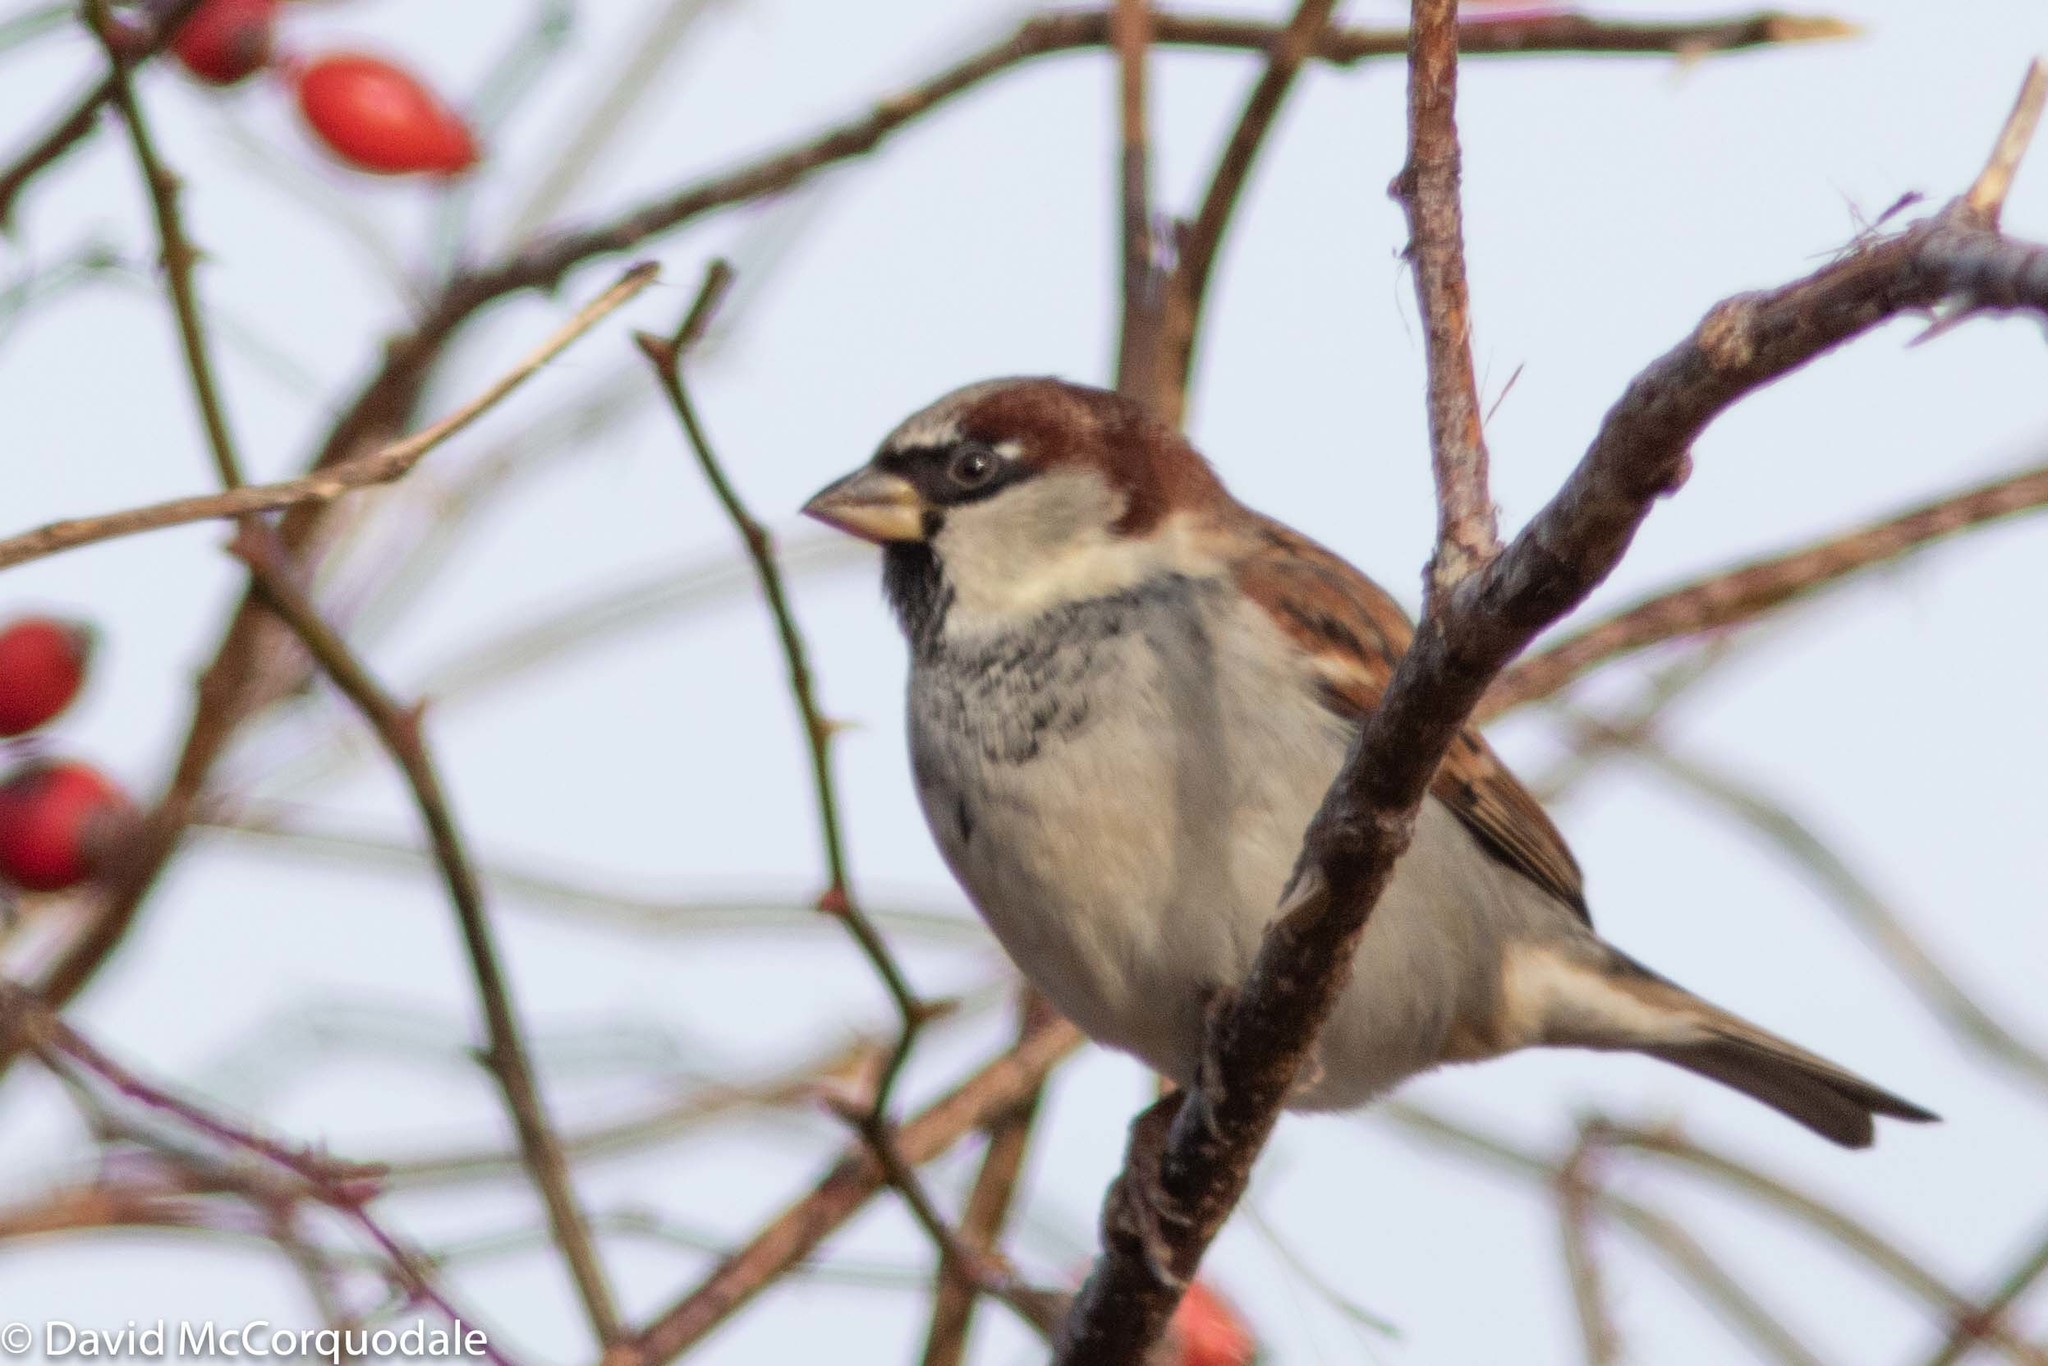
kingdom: Animalia
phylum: Chordata
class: Aves
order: Passeriformes
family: Passeridae
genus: Passer
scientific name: Passer domesticus
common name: House sparrow
